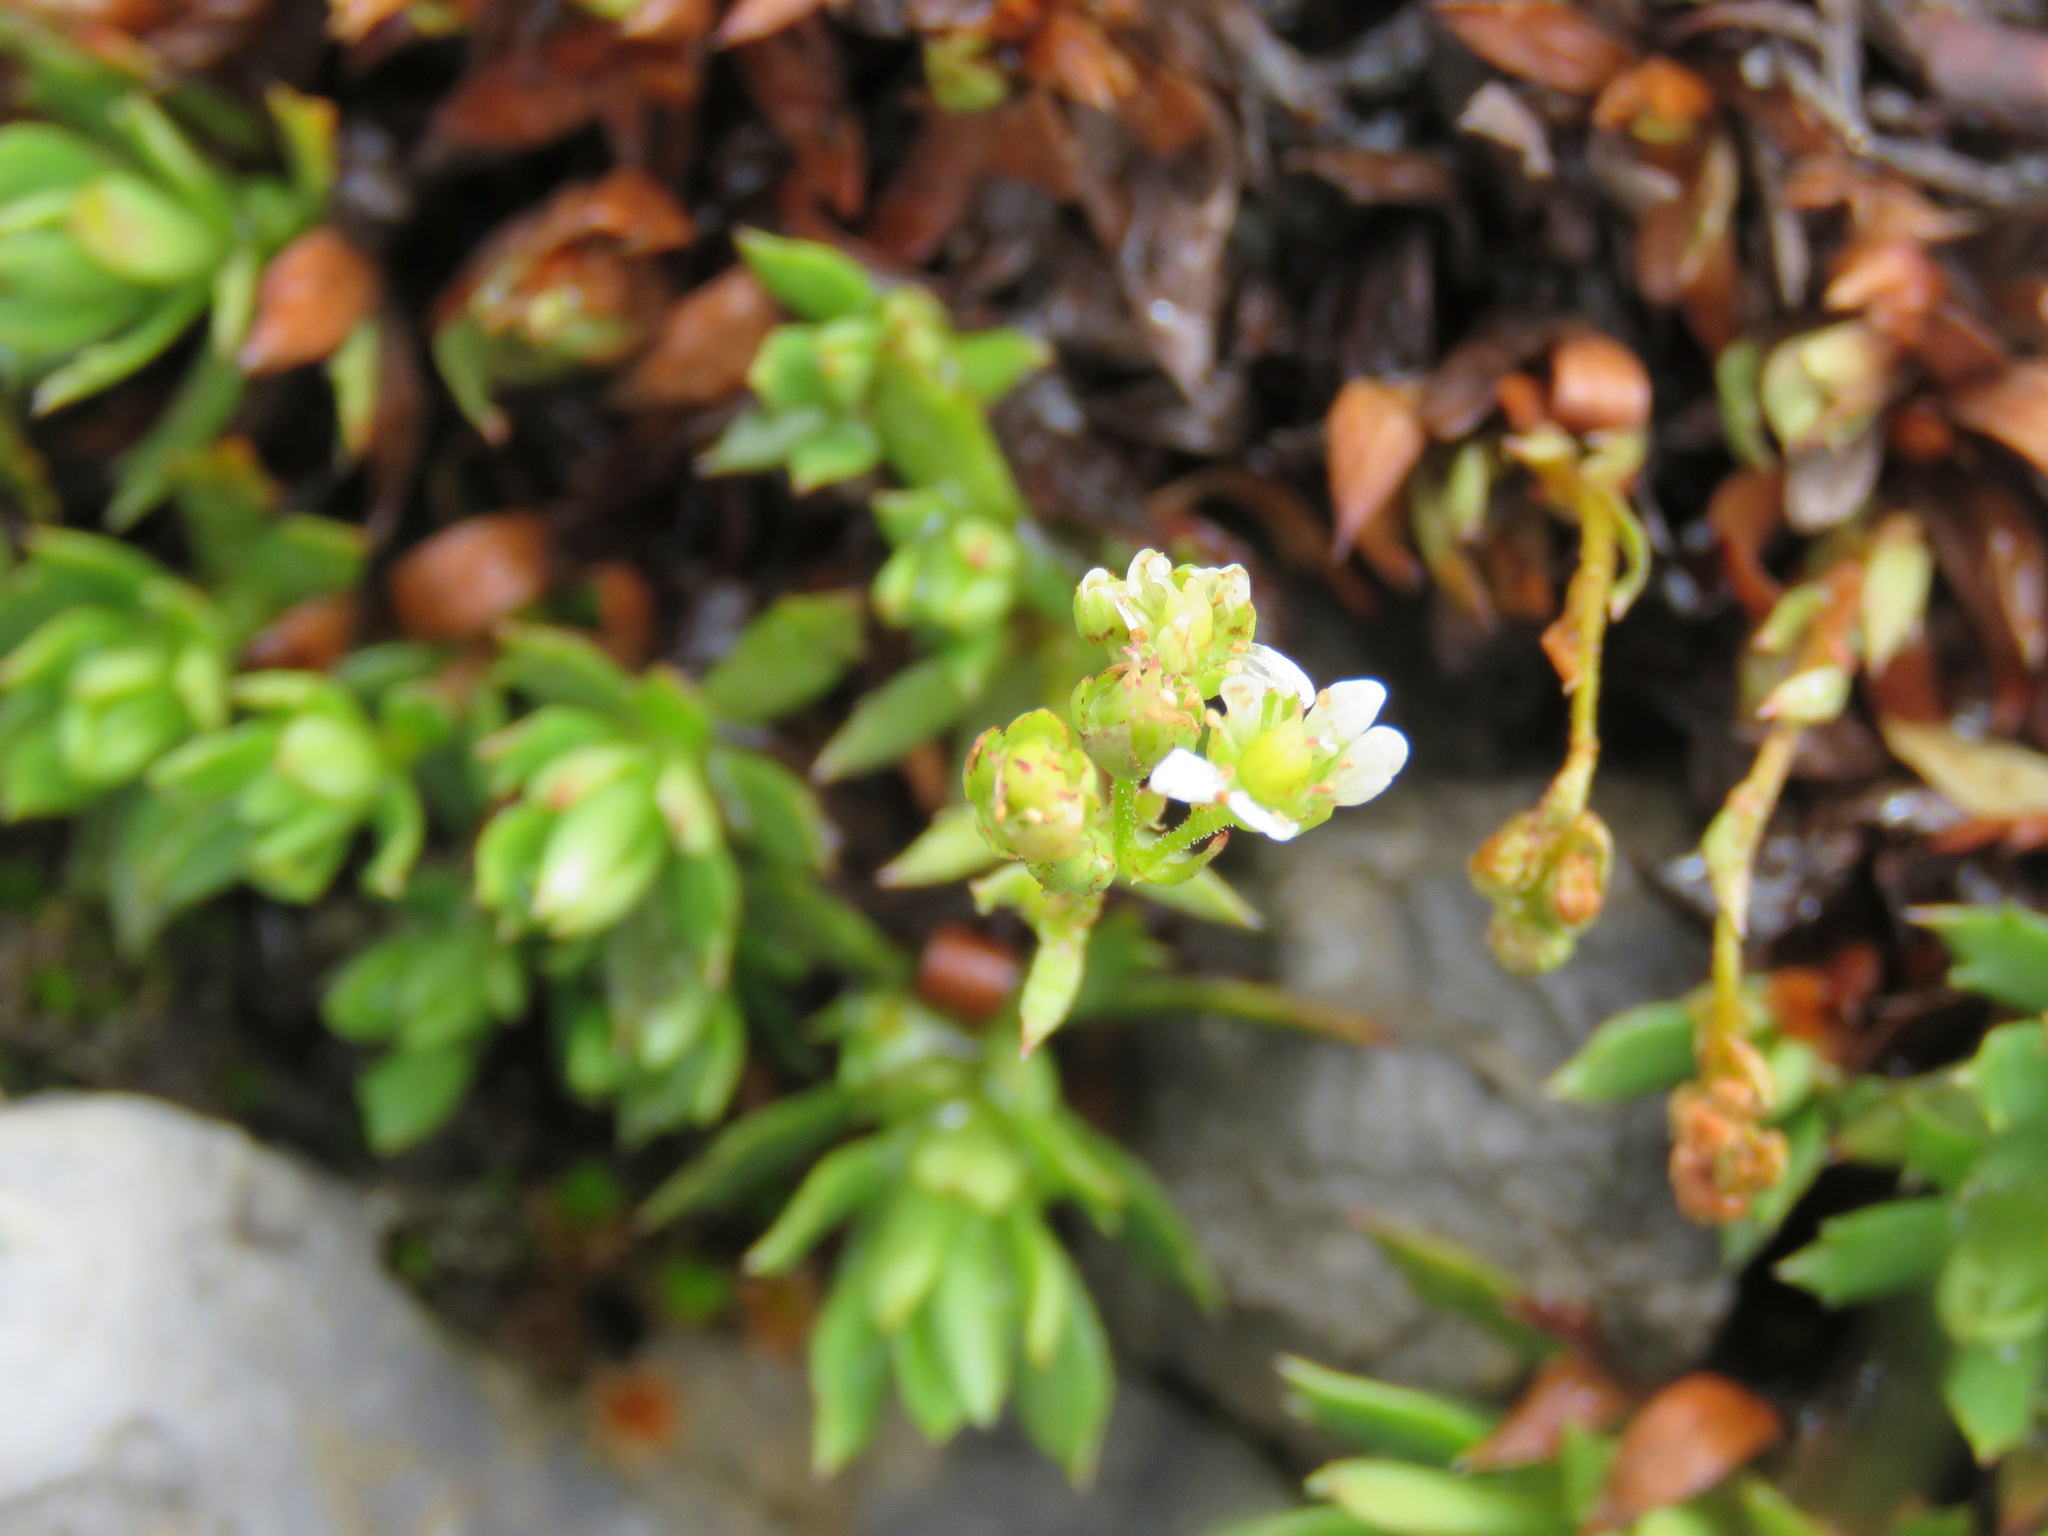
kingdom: Plantae
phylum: Tracheophyta
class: Magnoliopsida
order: Saxifragales
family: Saxifragaceae
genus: Saxifraga
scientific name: Saxifraga tricuspidata
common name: Prickly saxifrage
